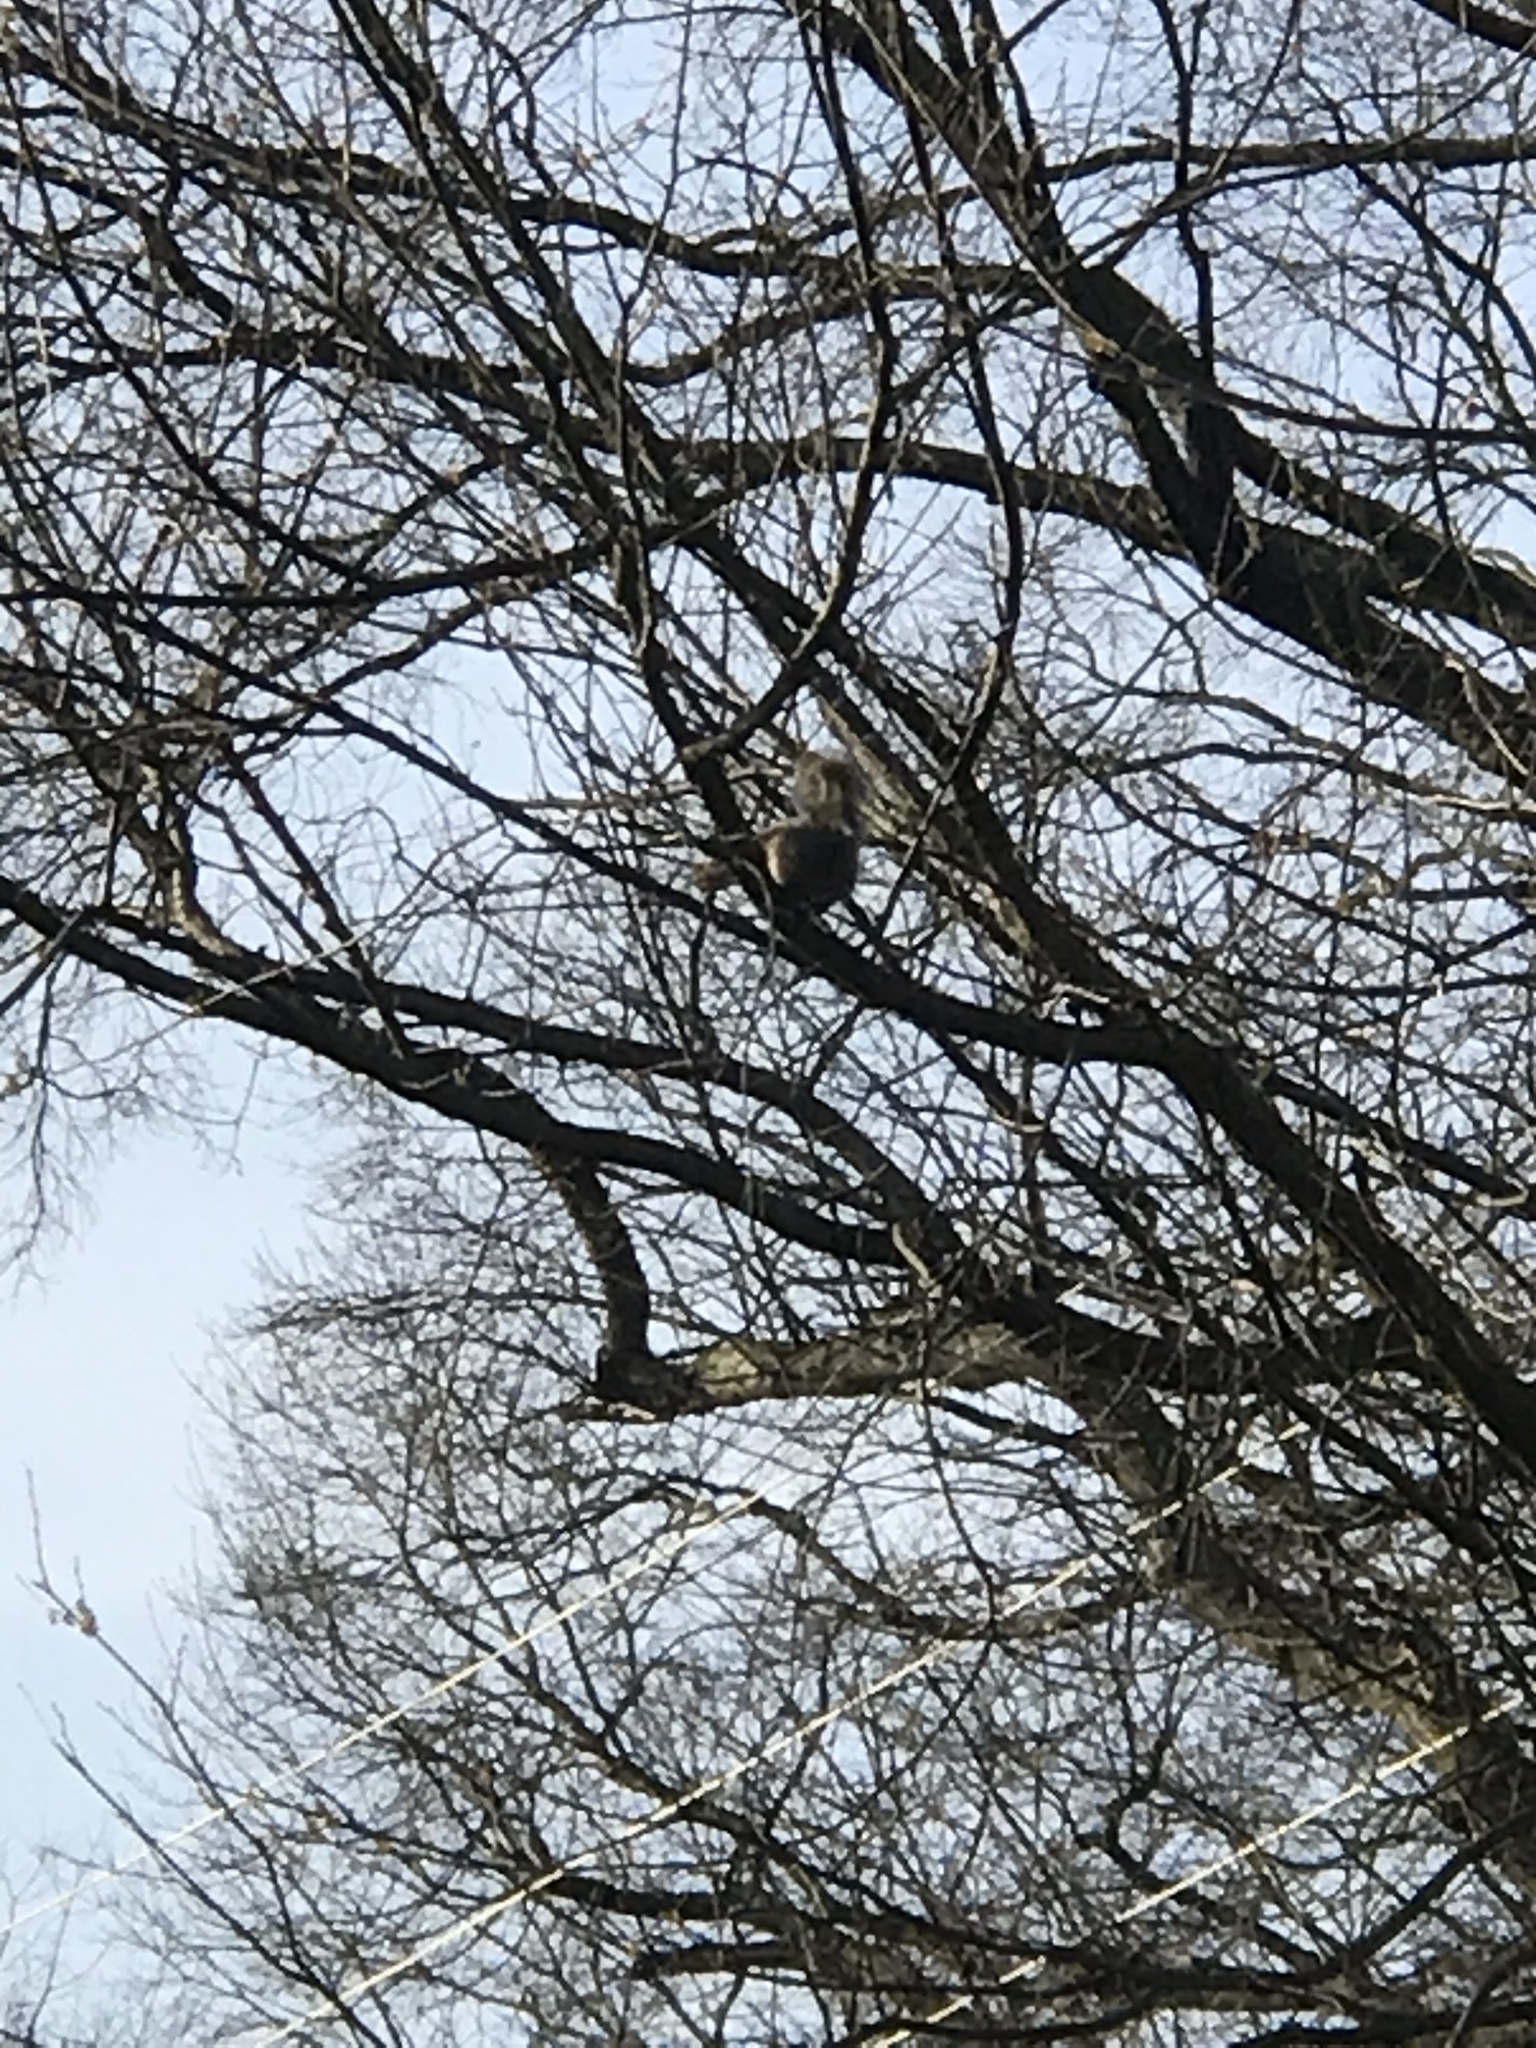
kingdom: Animalia
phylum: Chordata
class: Mammalia
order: Rodentia
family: Sciuridae
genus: Sciurus
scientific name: Sciurus carolinensis
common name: Eastern gray squirrel
